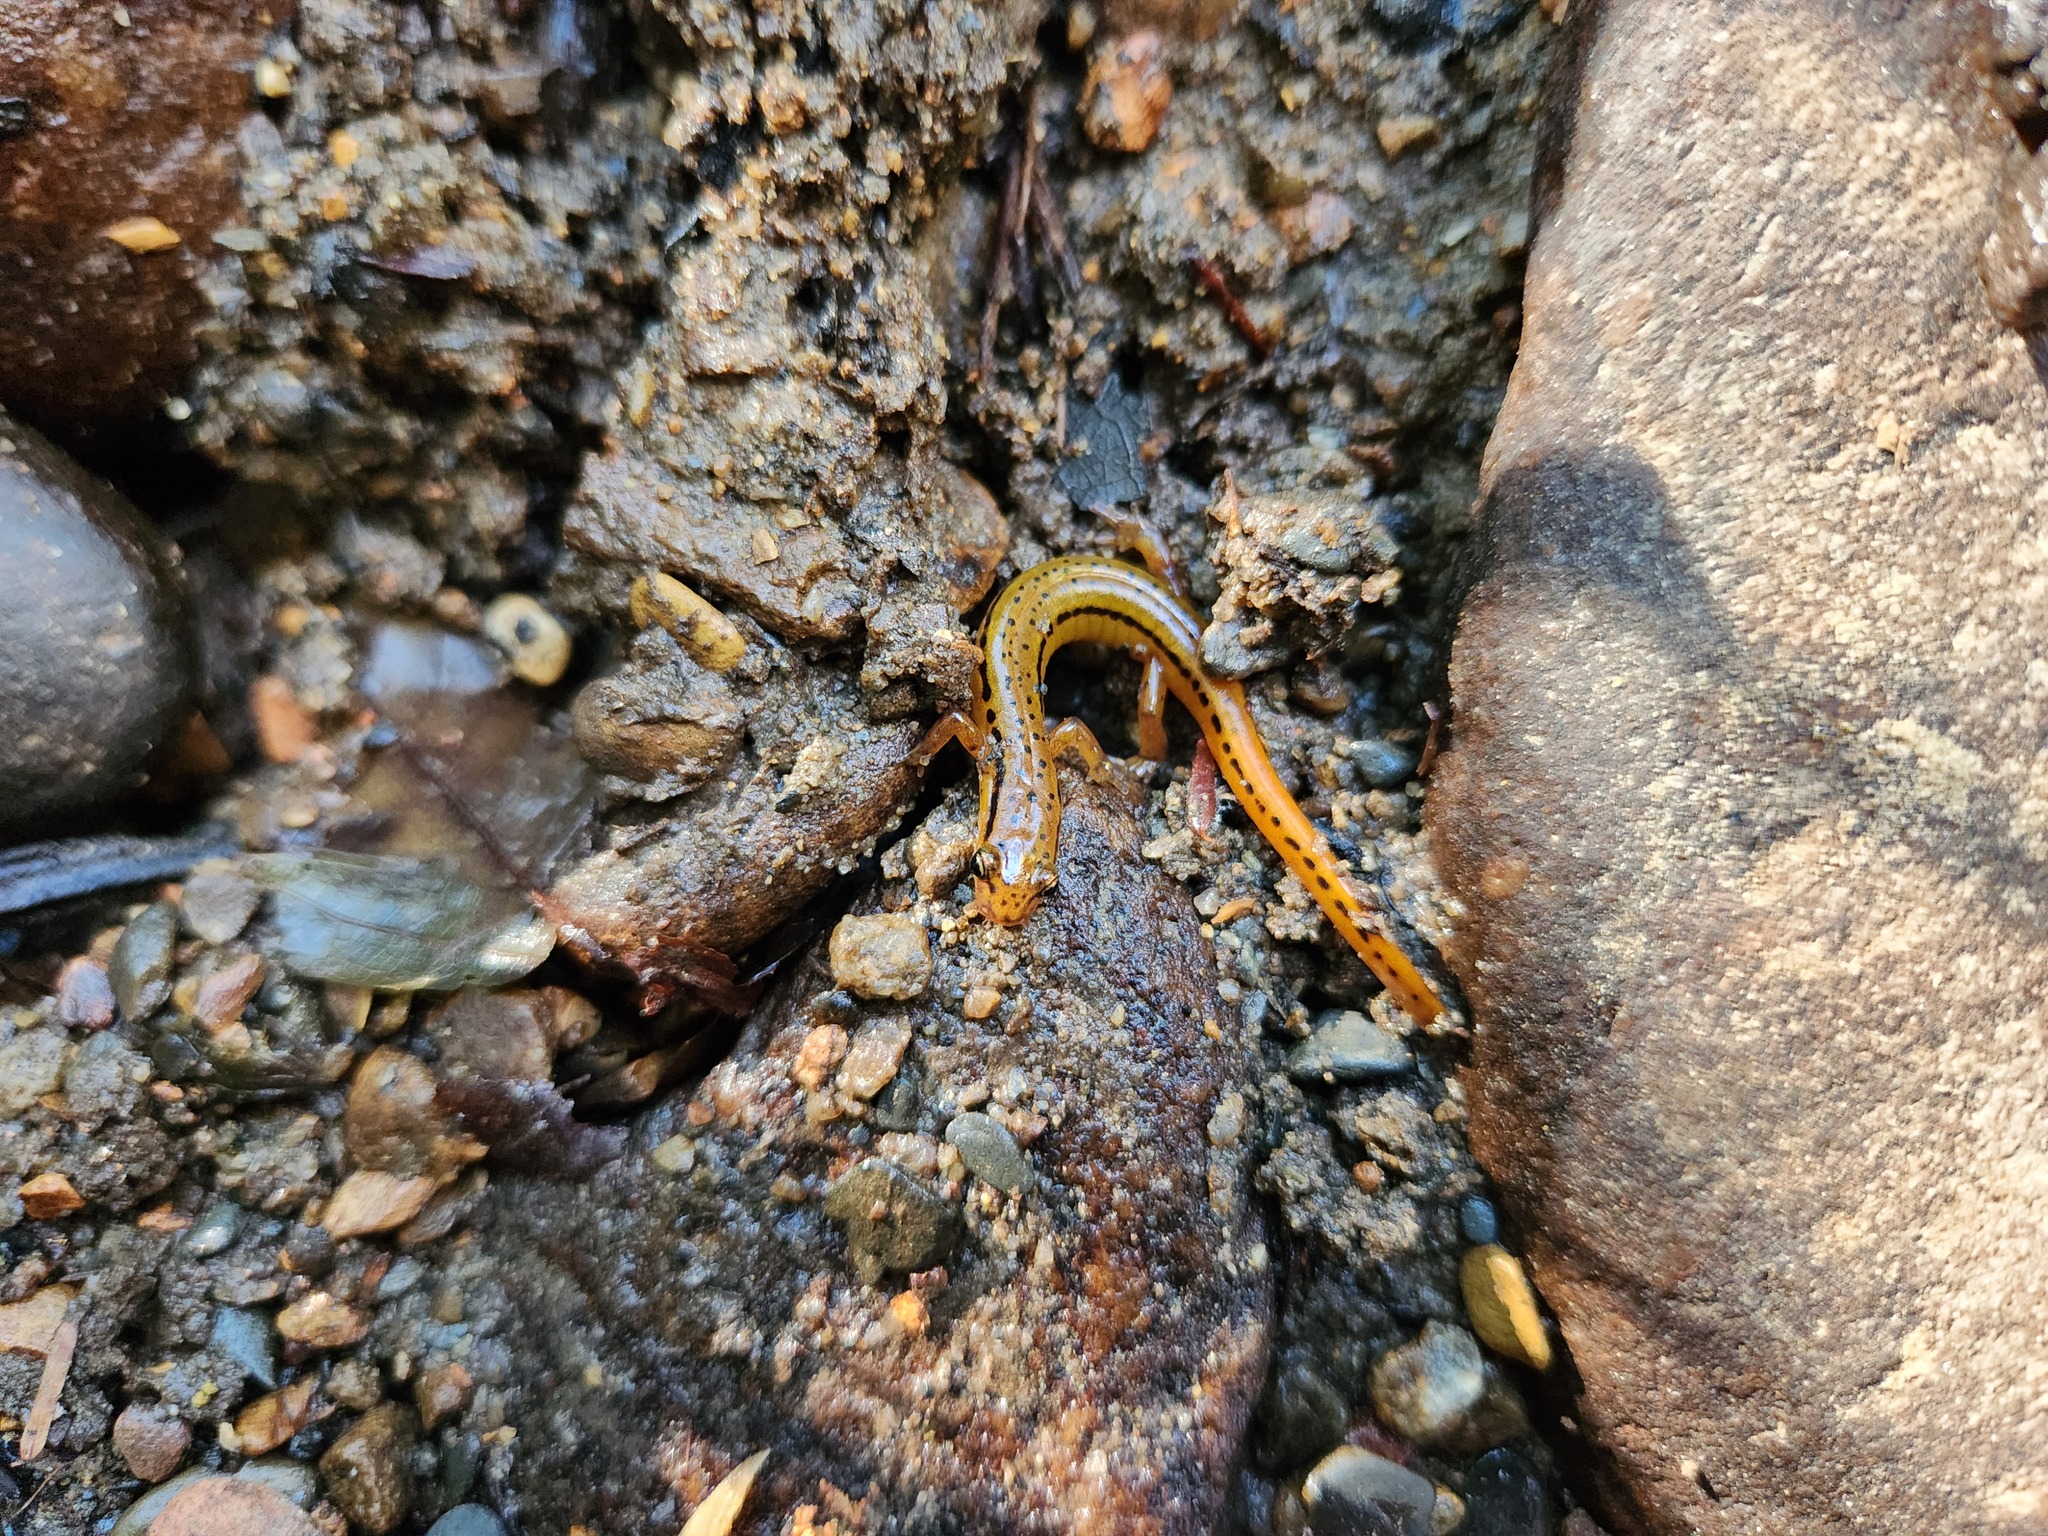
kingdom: Animalia
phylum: Chordata
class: Amphibia
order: Caudata
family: Plethodontidae
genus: Eurycea
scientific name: Eurycea wilderae
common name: Blue ridge two-lined salamander
